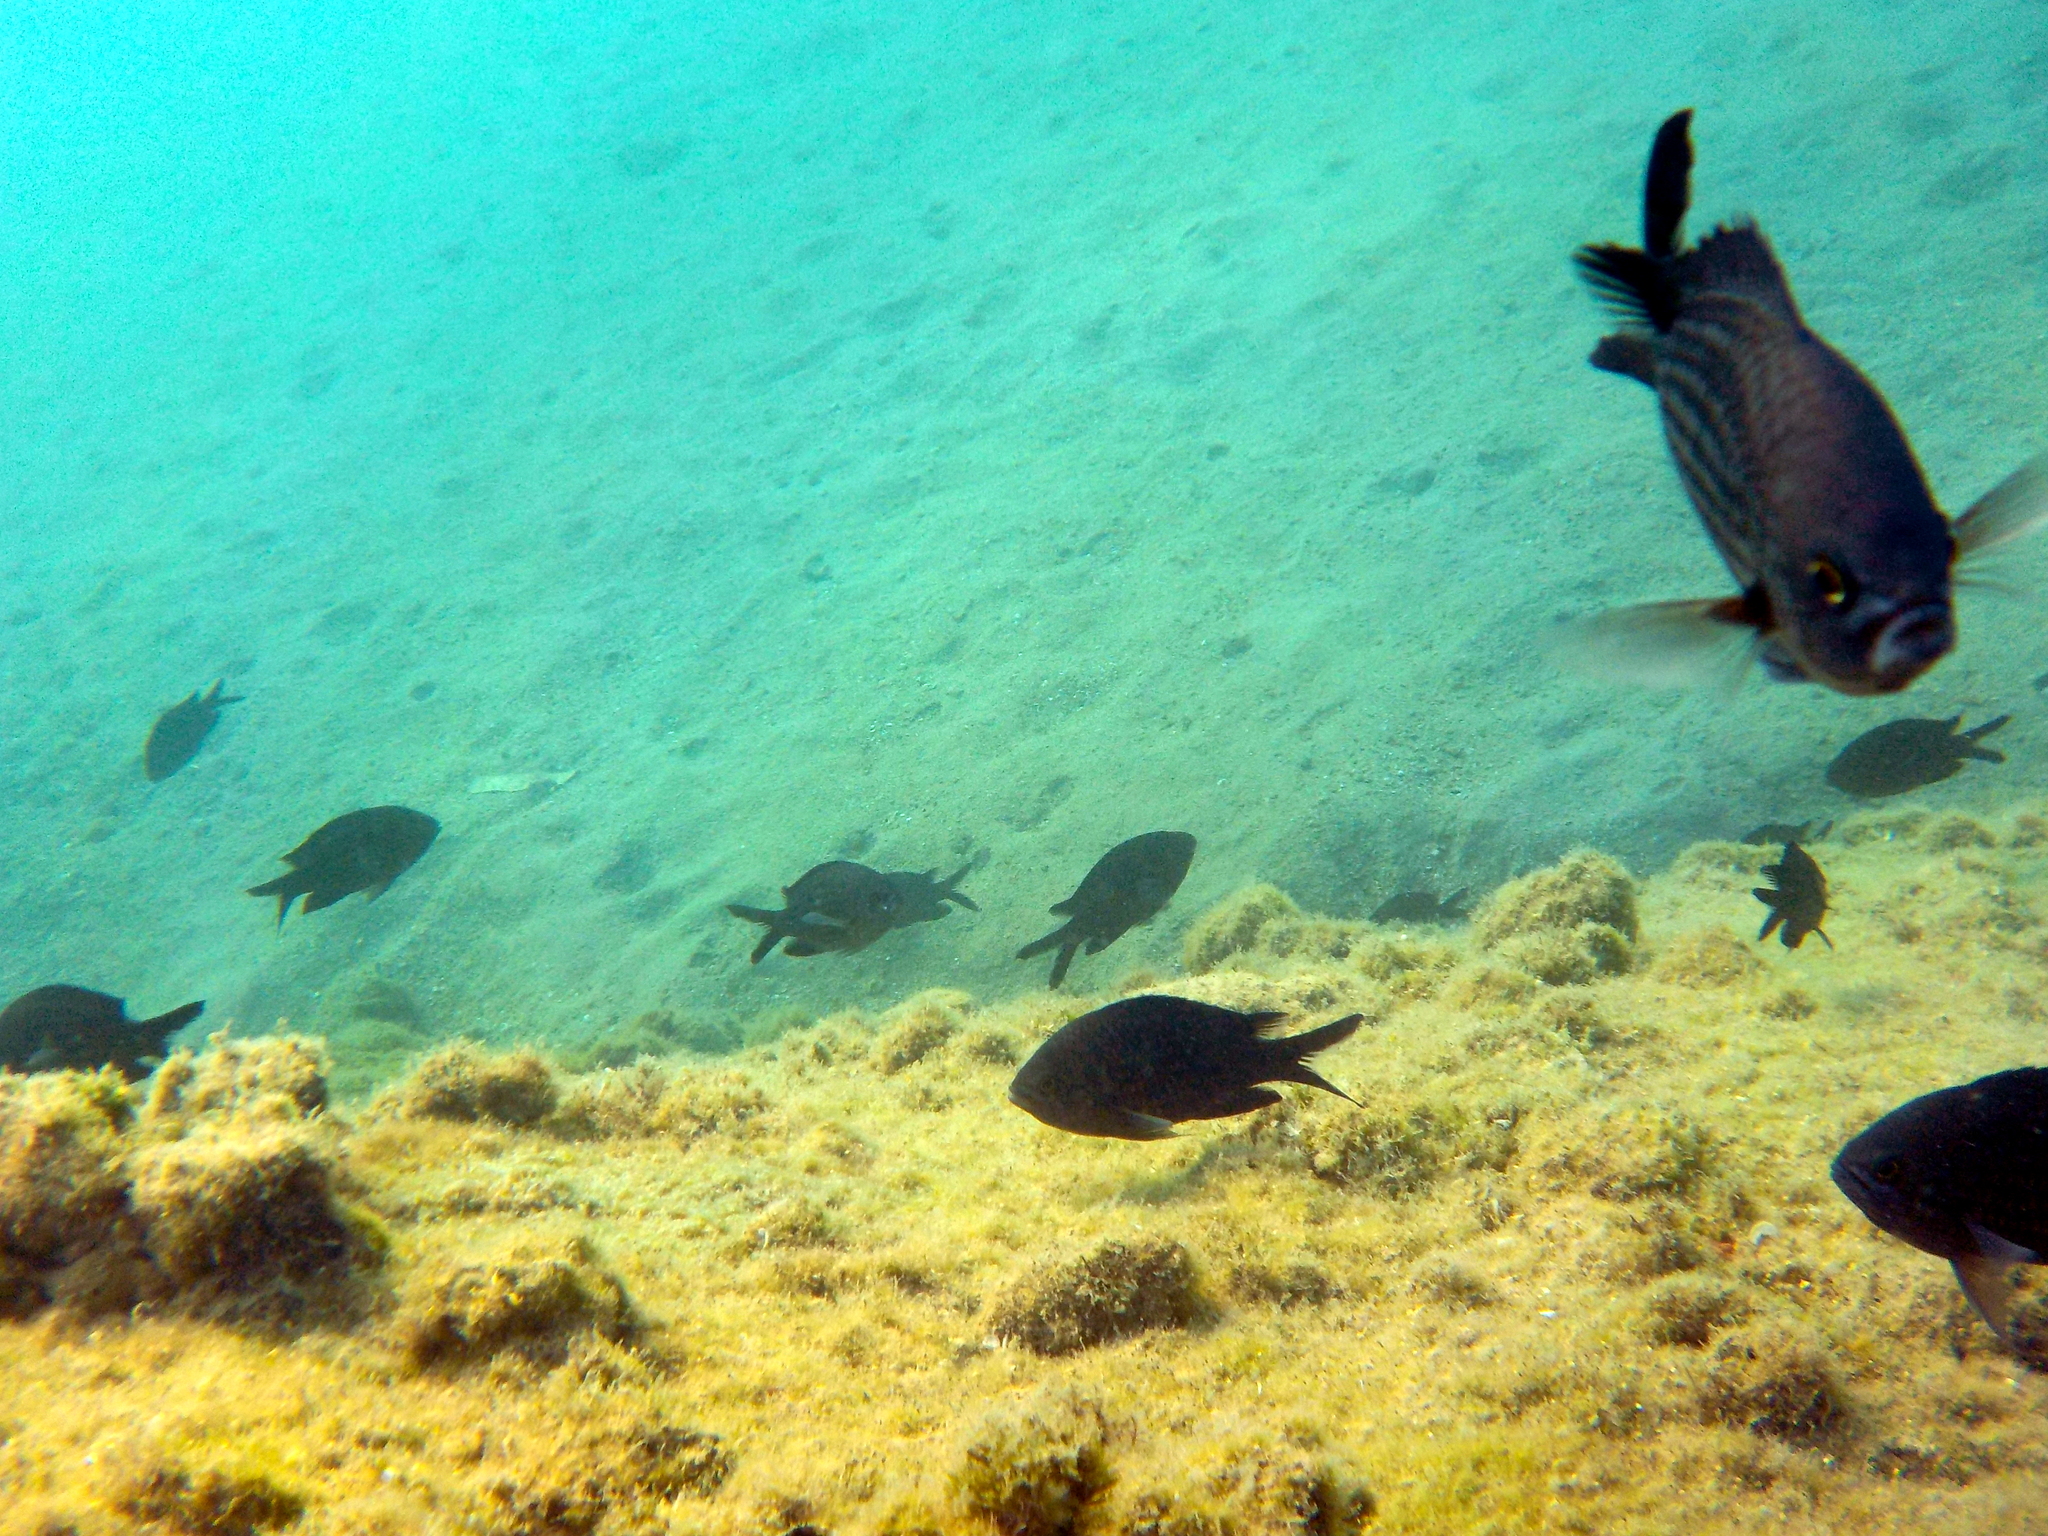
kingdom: Animalia
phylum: Chordata
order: Perciformes
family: Pomacentridae
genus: Chromis
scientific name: Chromis chromis
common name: Damselfish
